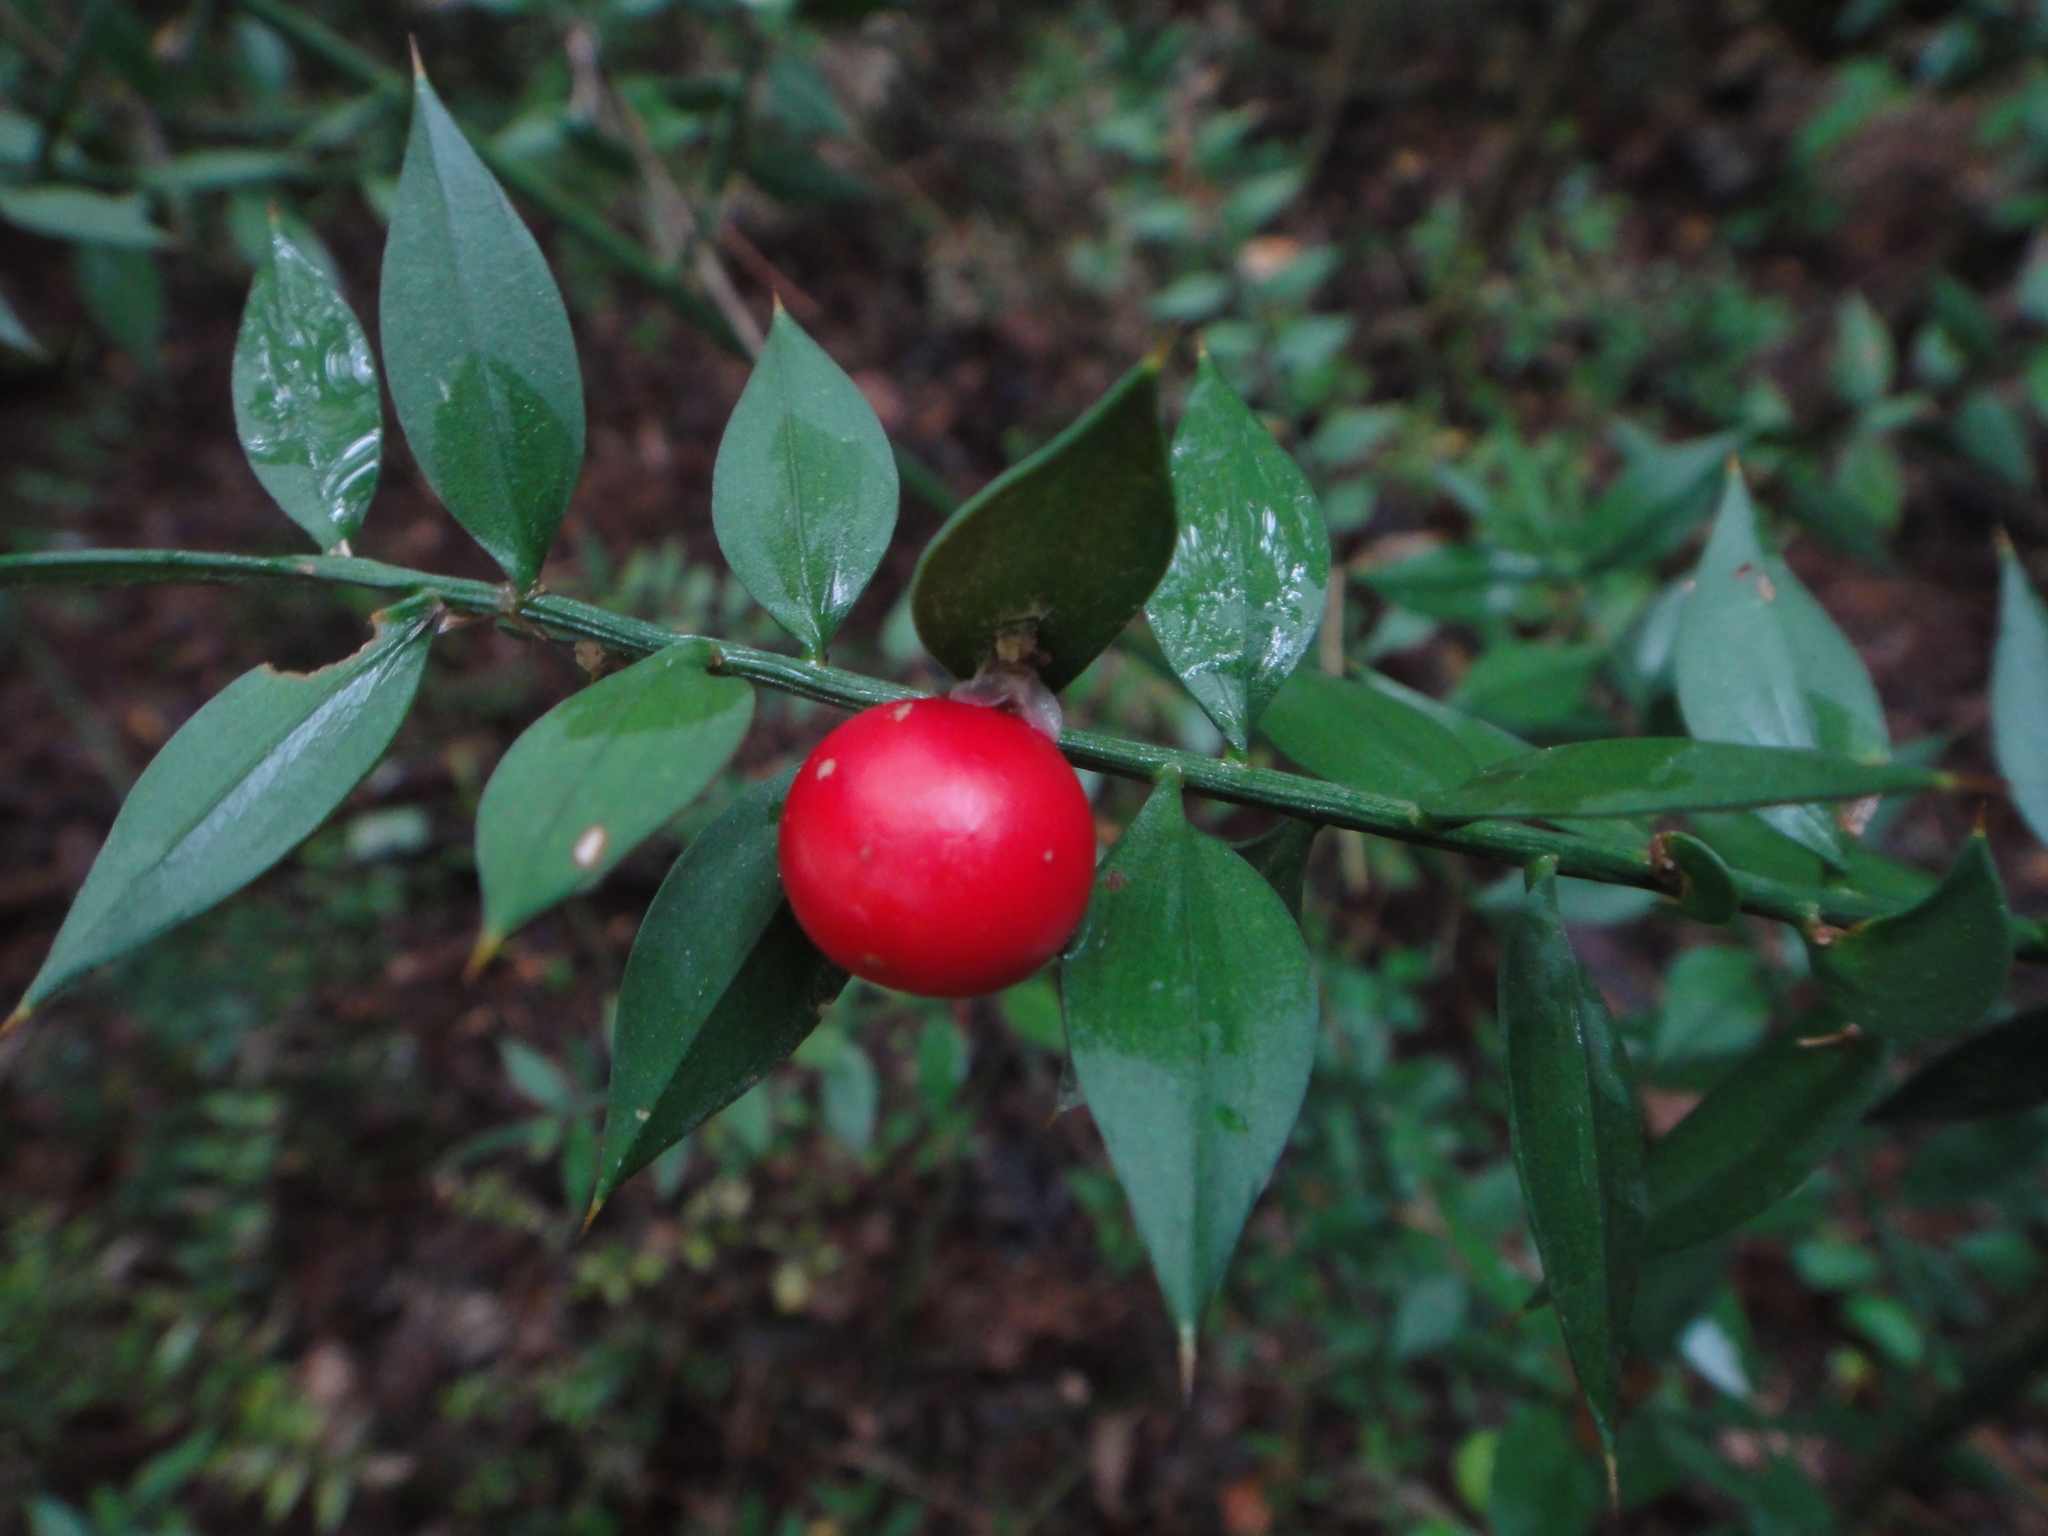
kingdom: Plantae
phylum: Tracheophyta
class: Liliopsida
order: Asparagales
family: Asparagaceae
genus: Ruscus
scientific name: Ruscus aculeatus
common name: Butcher's-broom
